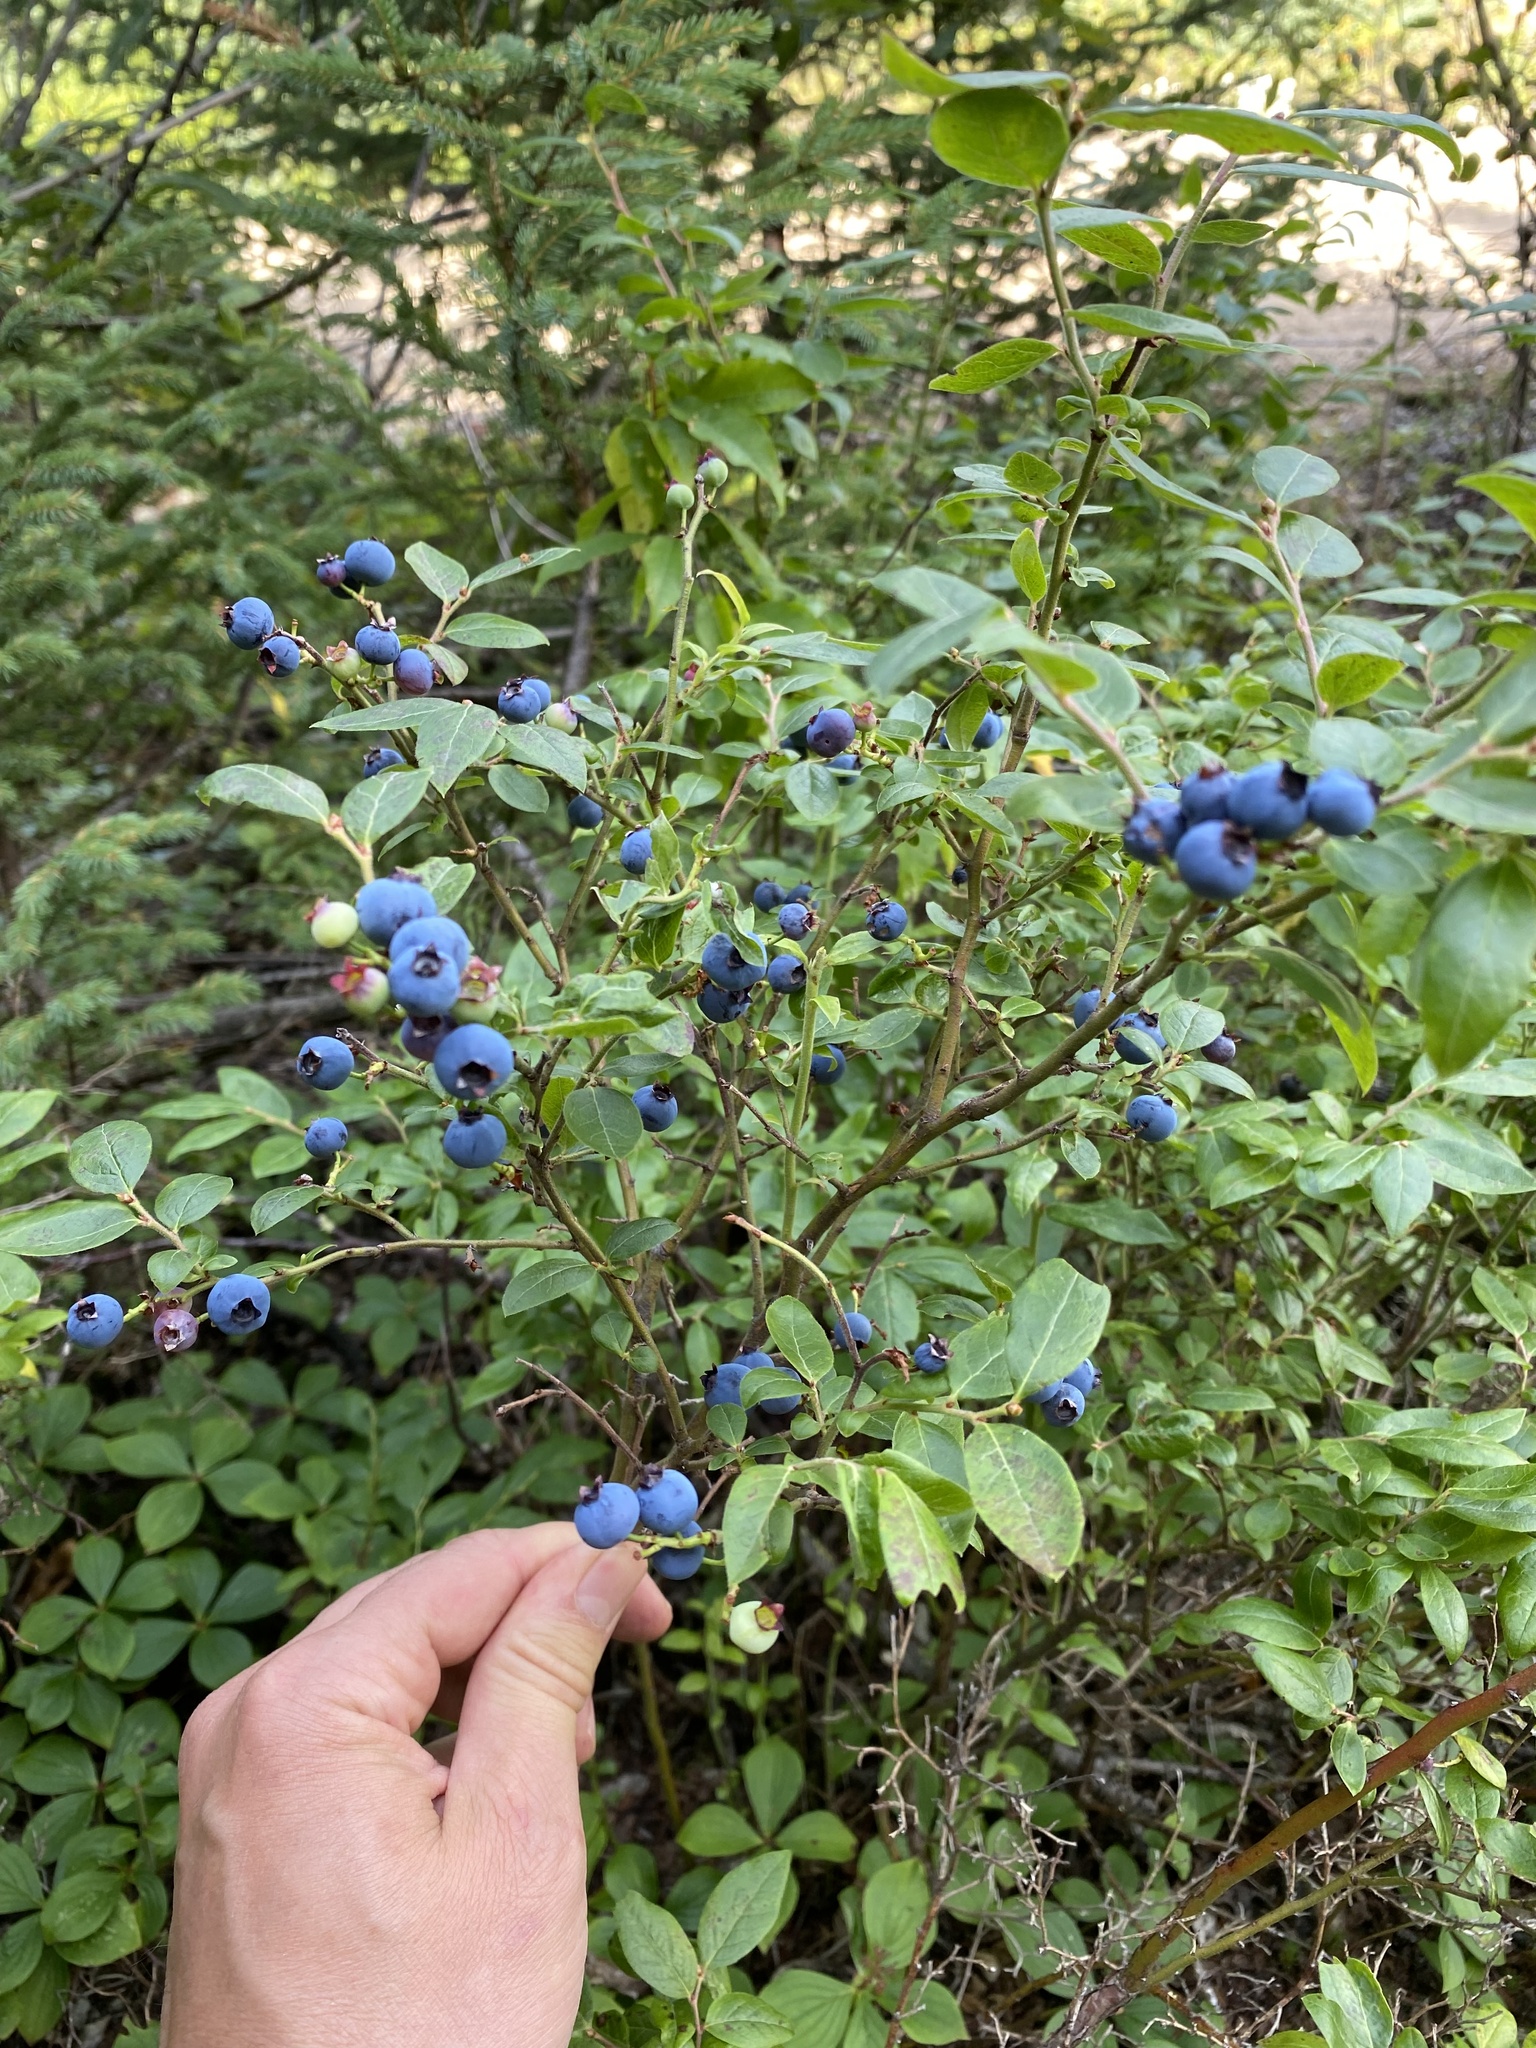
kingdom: Plantae
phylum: Tracheophyta
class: Magnoliopsida
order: Ericales
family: Ericaceae
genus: Vaccinium
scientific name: Vaccinium angustifolium
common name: Early lowbush blueberry
